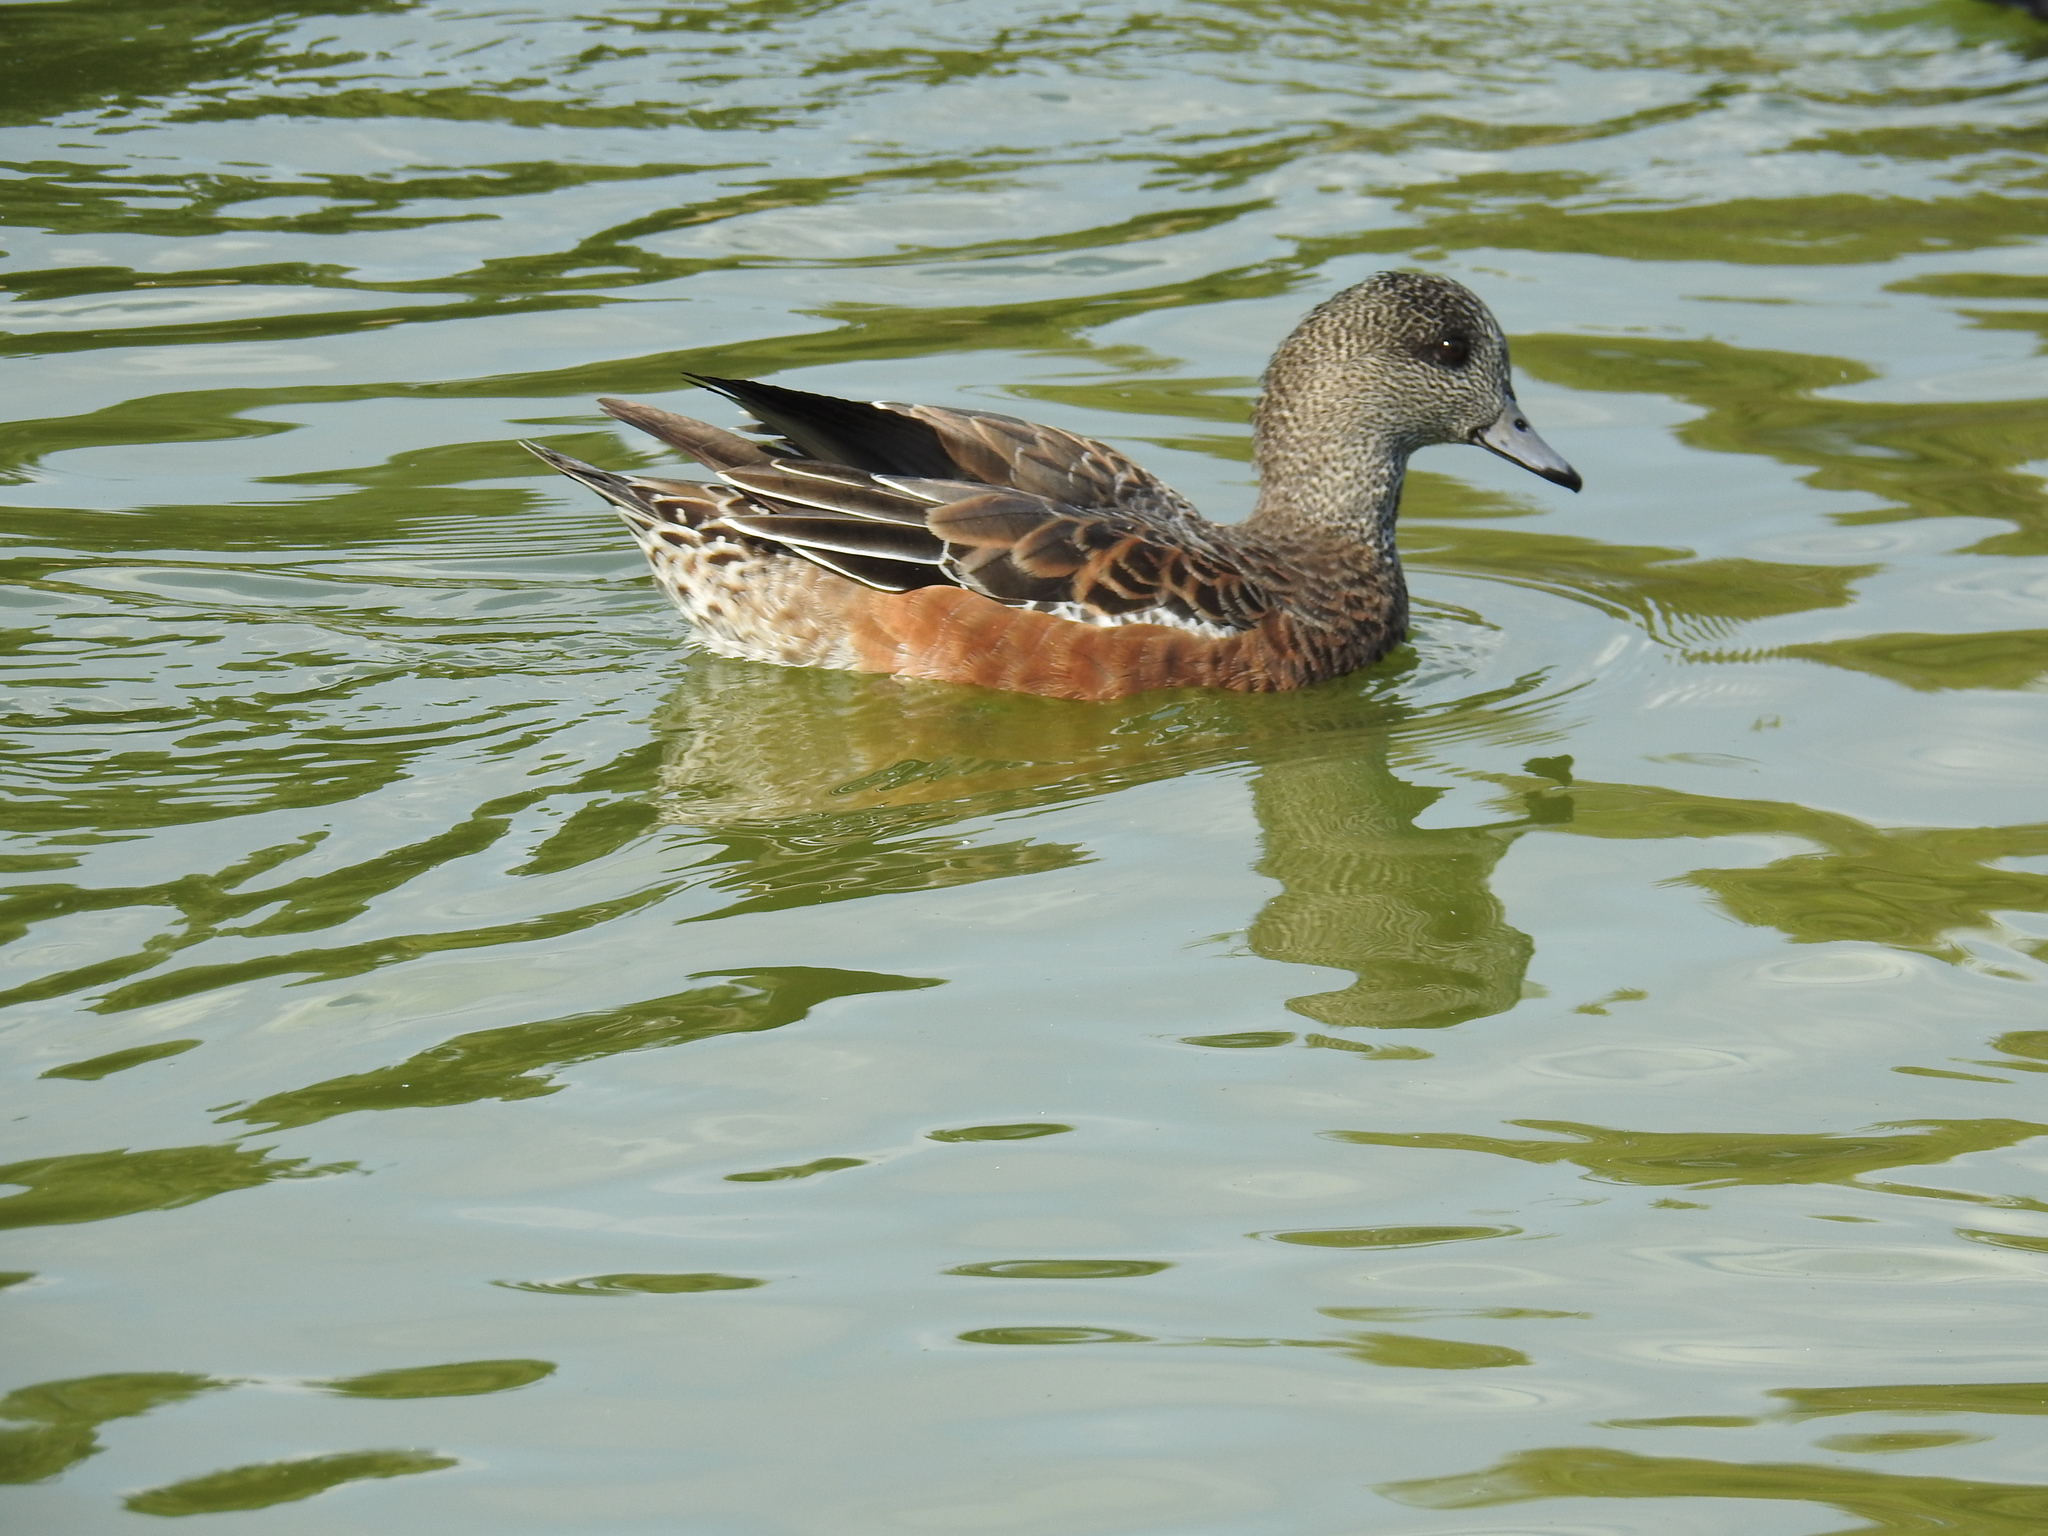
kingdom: Animalia
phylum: Chordata
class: Aves
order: Anseriformes
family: Anatidae
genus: Mareca
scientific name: Mareca americana
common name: American wigeon
